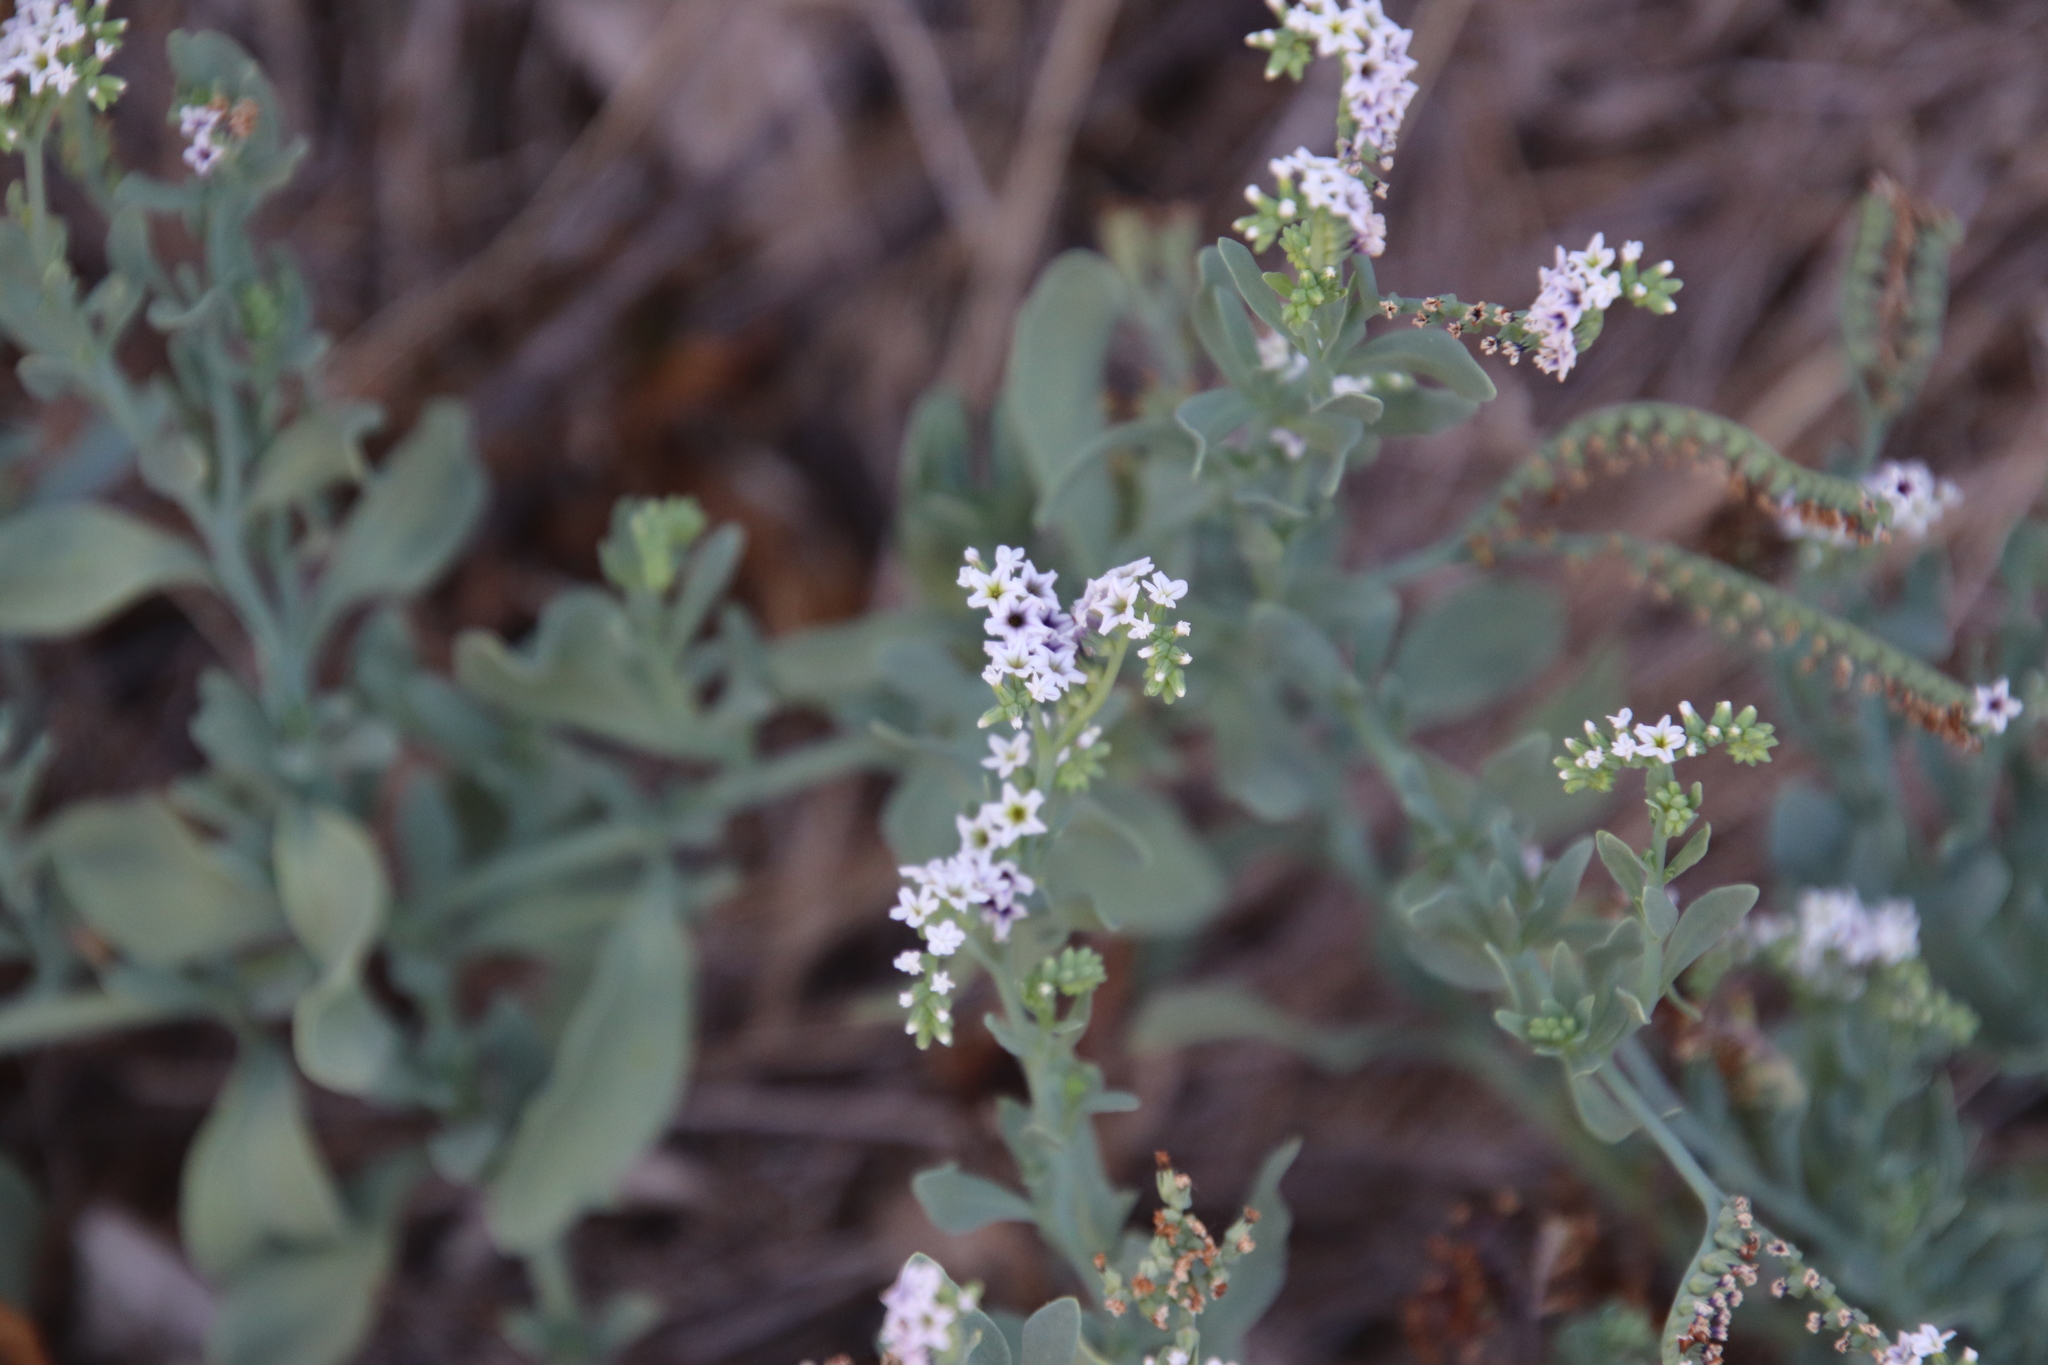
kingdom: Plantae
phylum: Tracheophyta
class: Magnoliopsida
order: Boraginales
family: Heliotropiaceae
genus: Heliotropium
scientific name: Heliotropium curassavicum
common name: Seaside heliotrope
